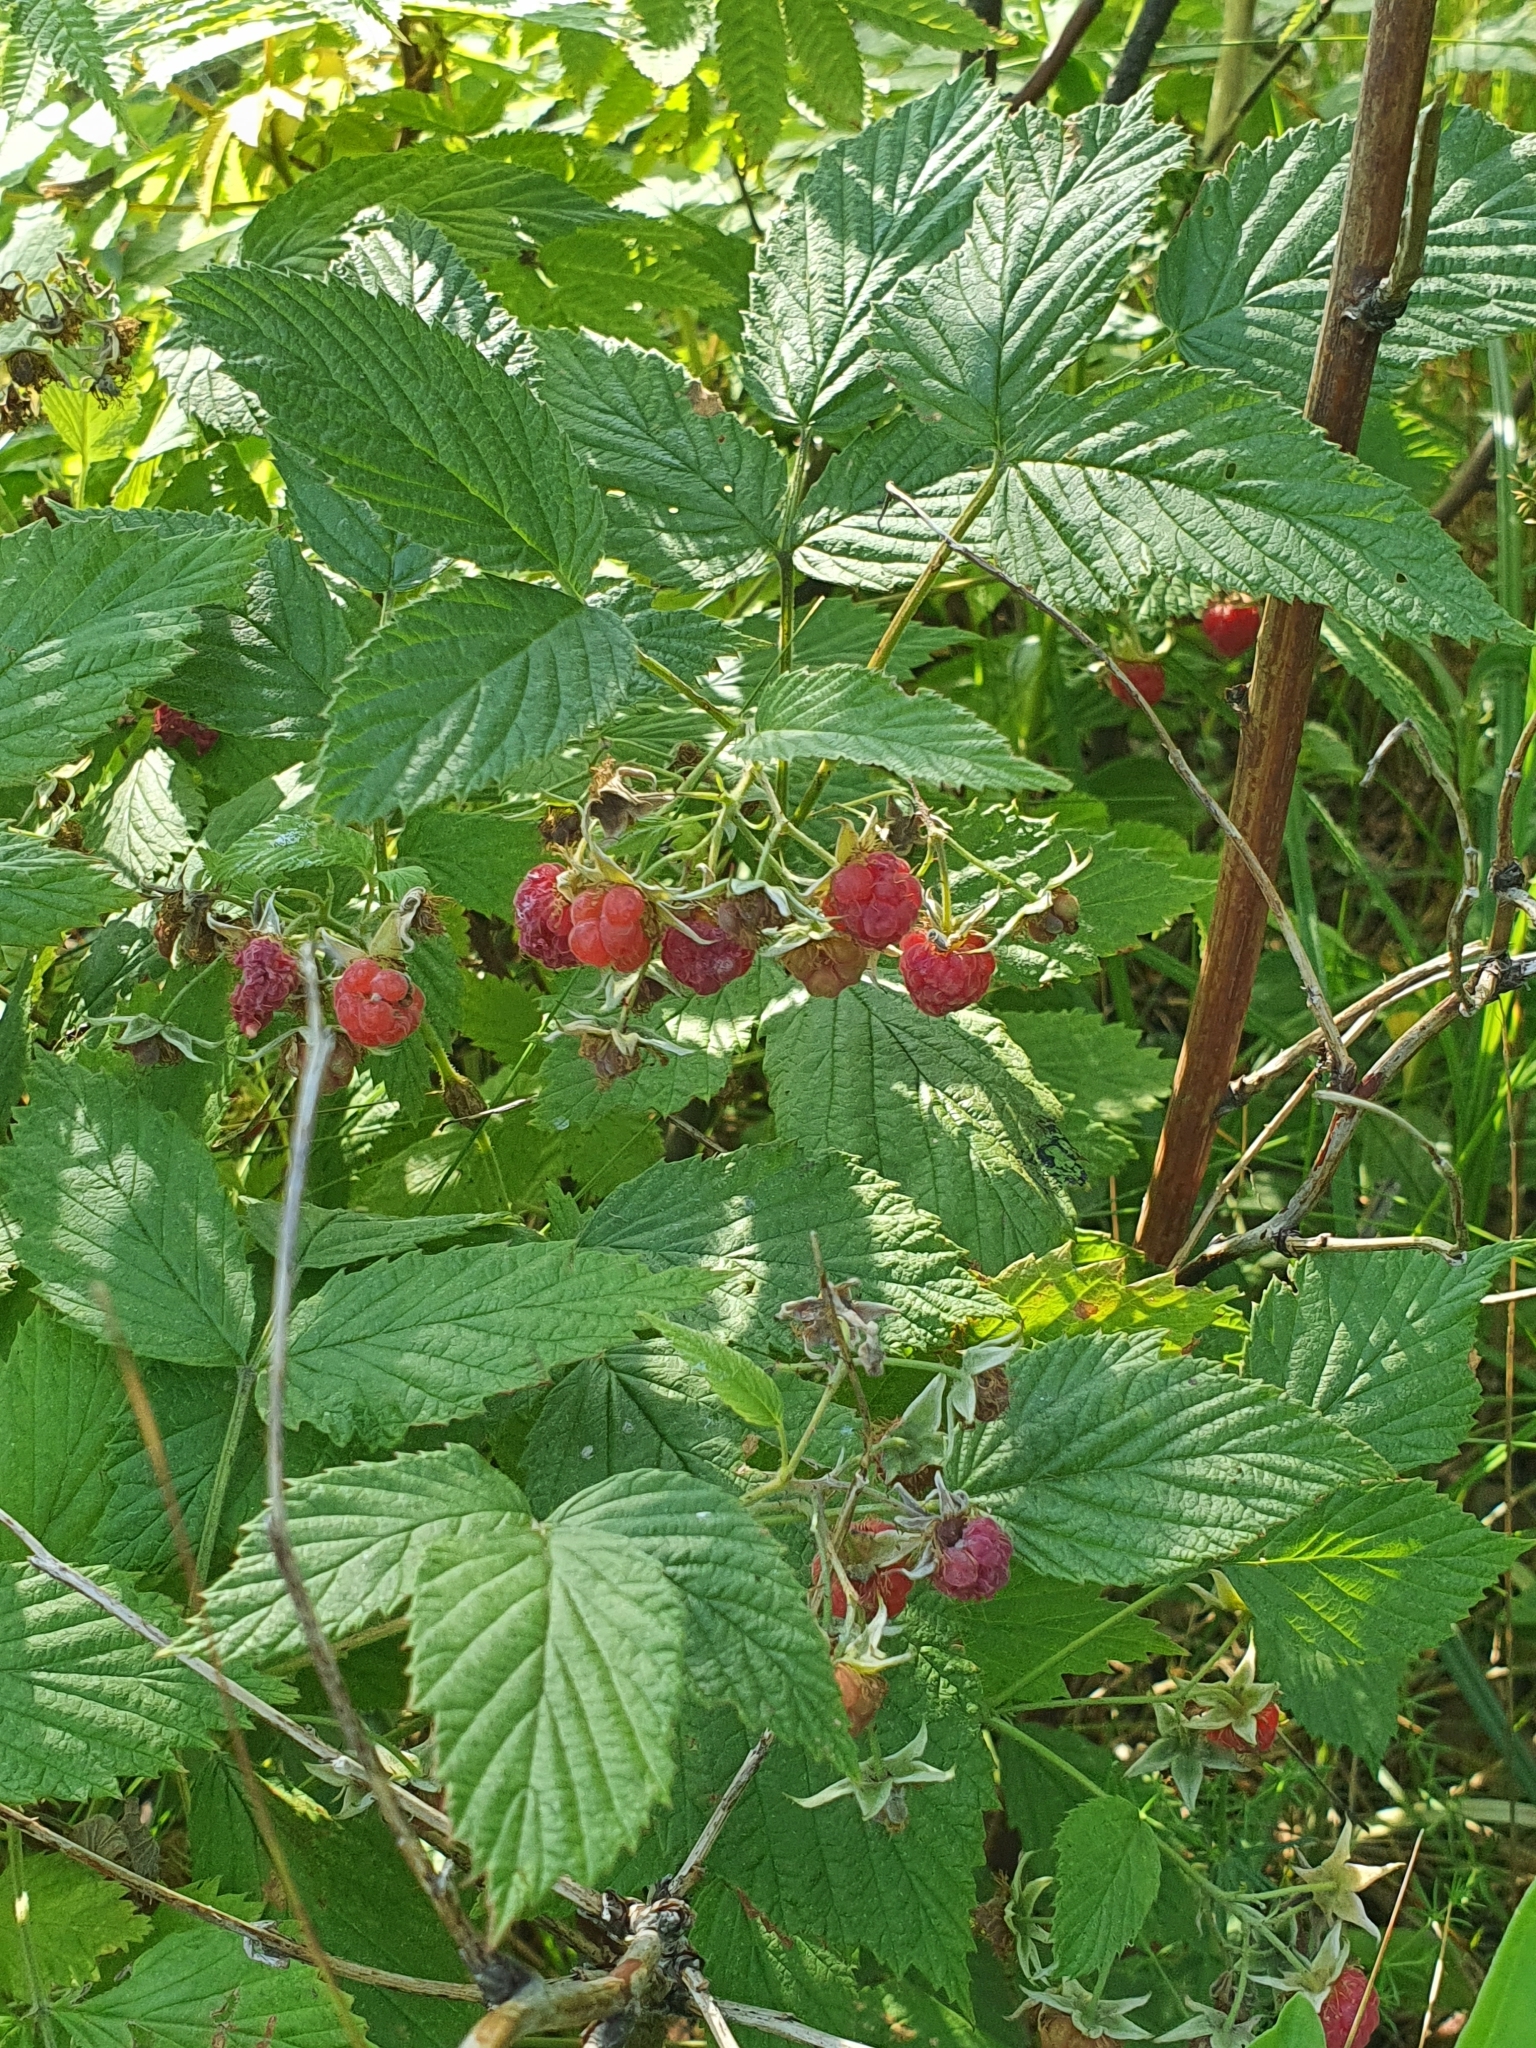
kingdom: Plantae
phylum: Tracheophyta
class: Magnoliopsida
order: Rosales
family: Rosaceae
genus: Rubus
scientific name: Rubus idaeus
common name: Raspberry
